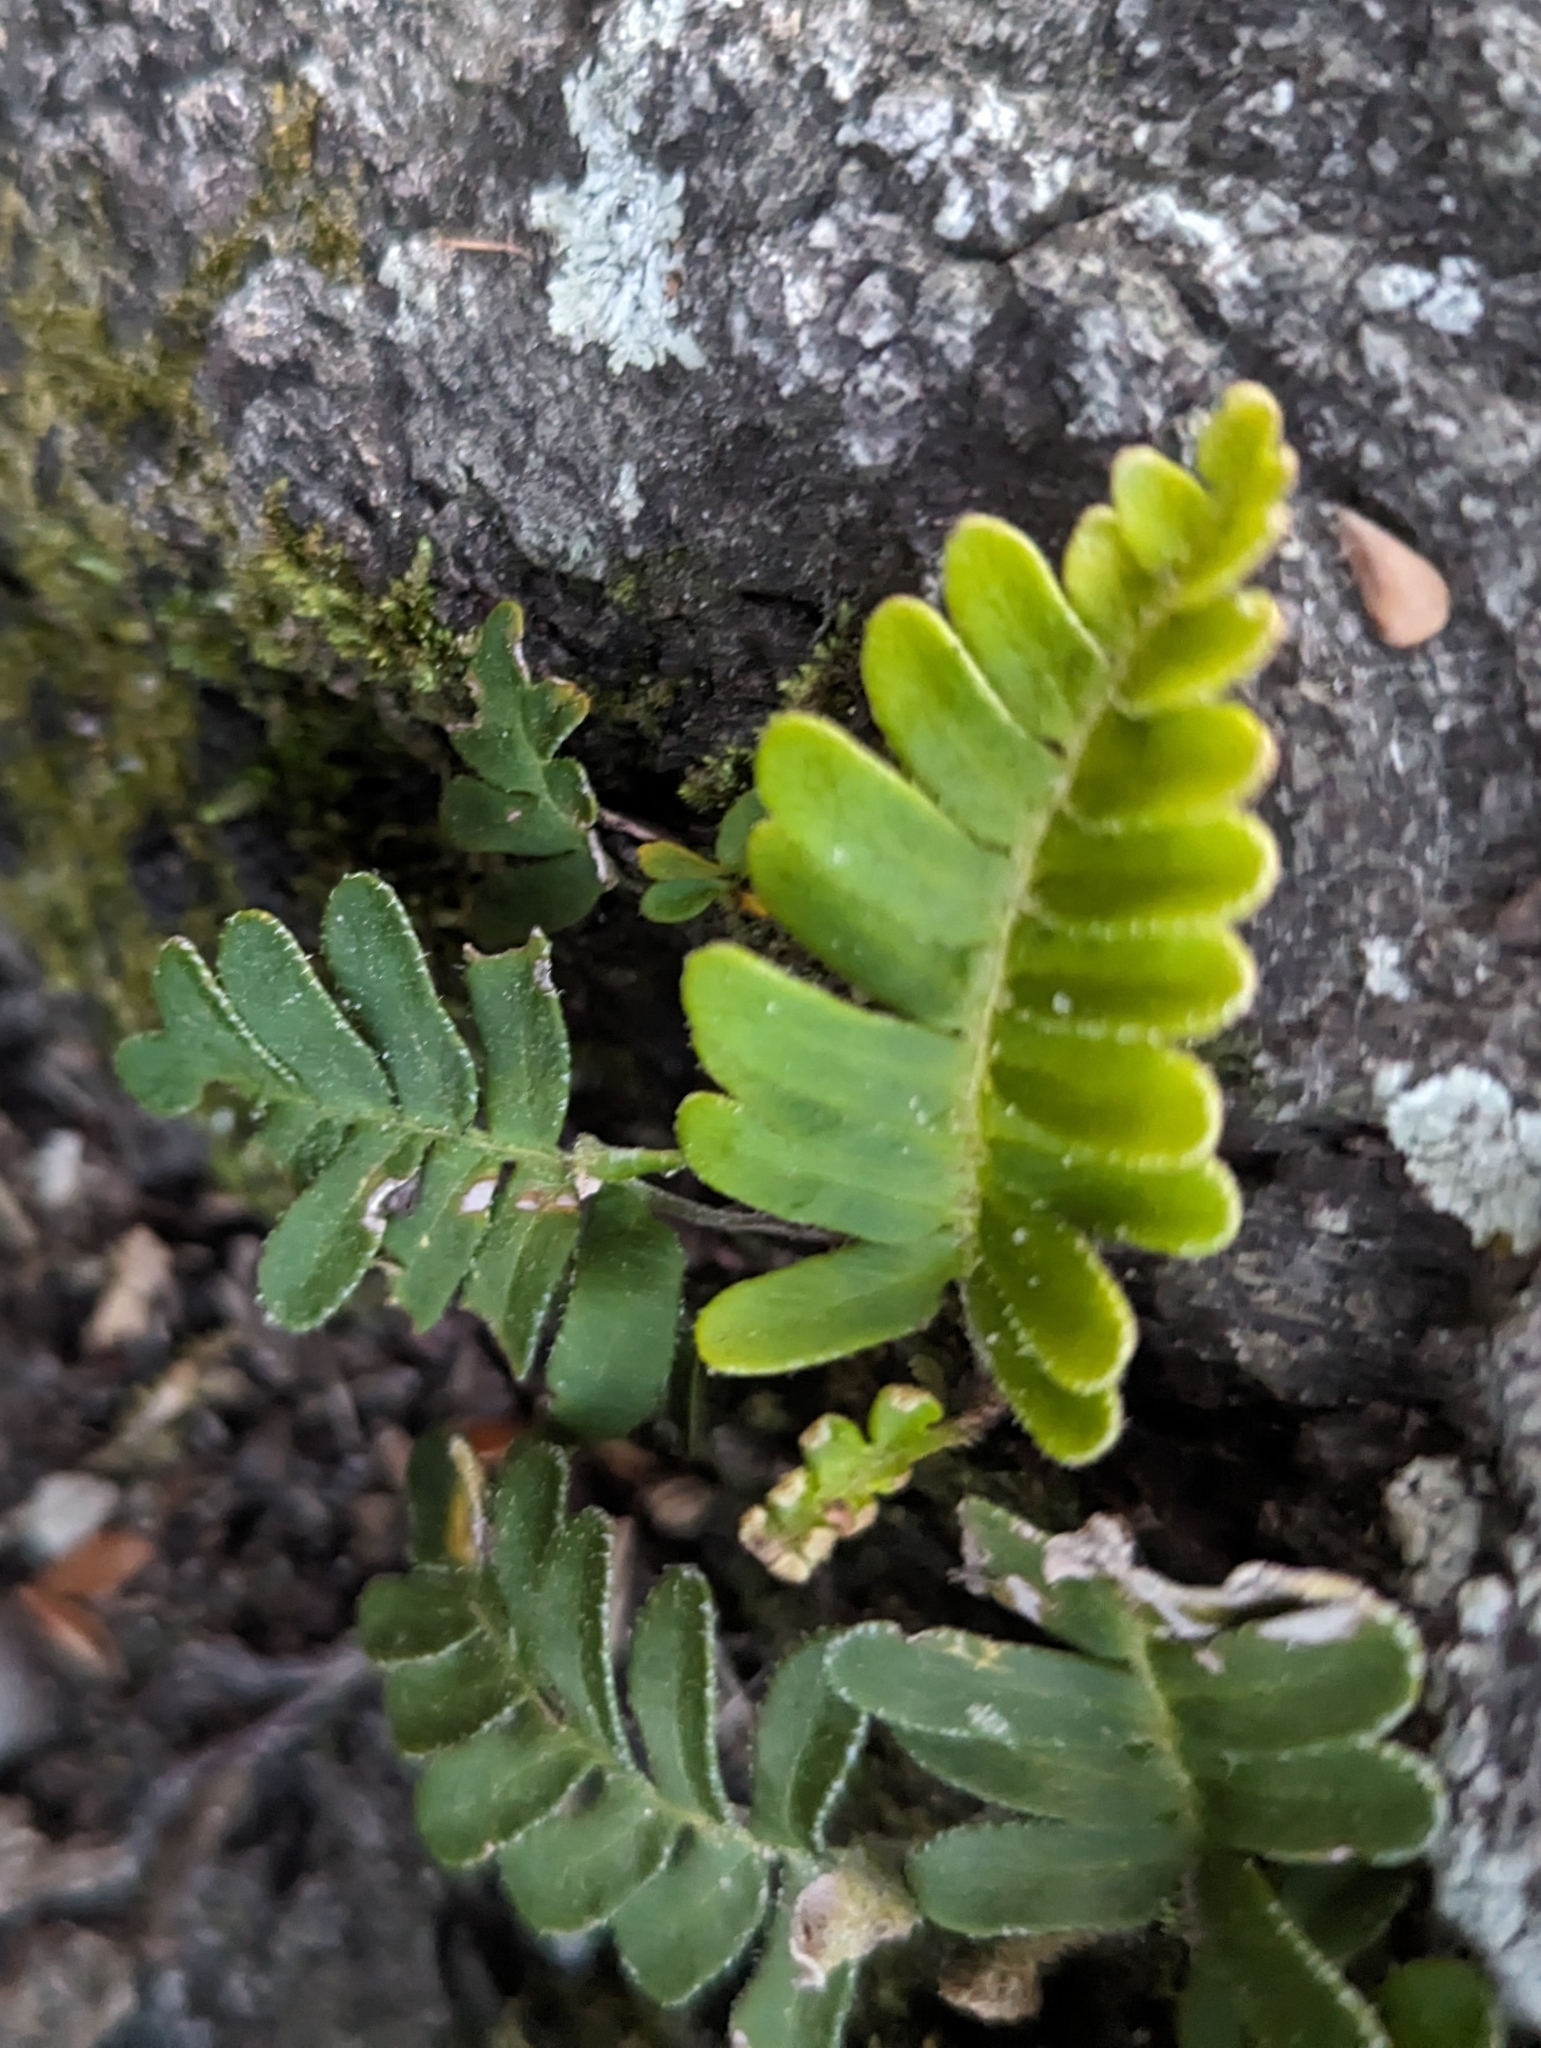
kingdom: Plantae
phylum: Tracheophyta
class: Polypodiopsida
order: Polypodiales
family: Polypodiaceae
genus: Pleopeltis
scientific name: Pleopeltis michauxiana
